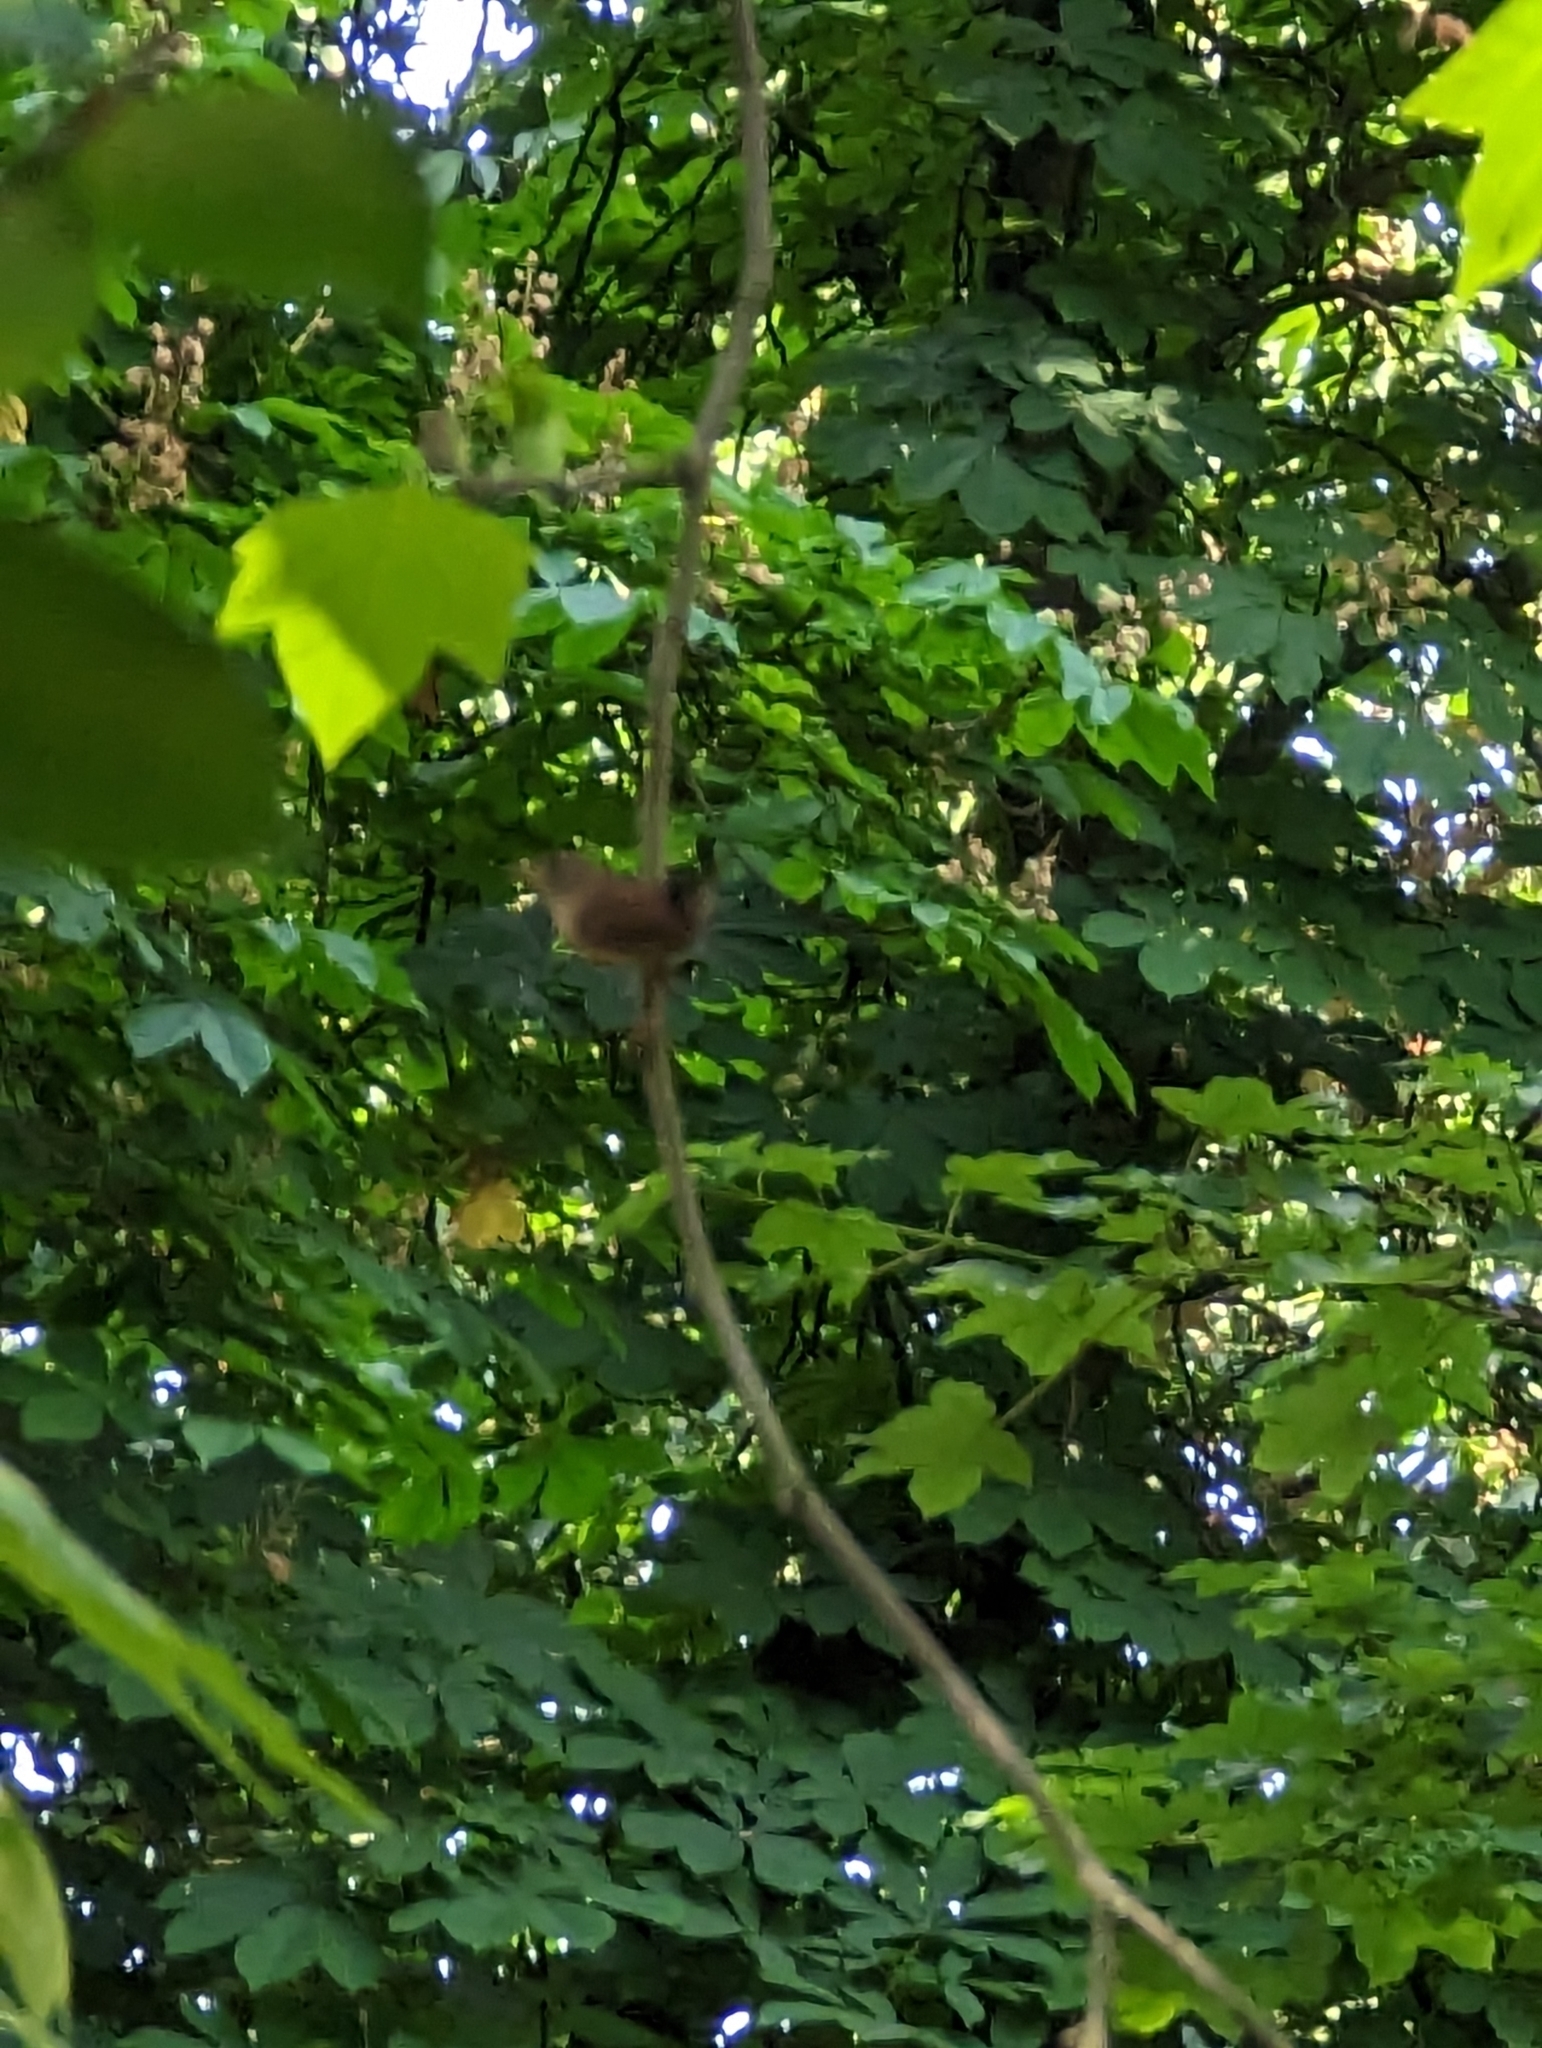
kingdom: Animalia
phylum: Chordata
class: Aves
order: Passeriformes
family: Troglodytidae
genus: Troglodytes
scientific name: Troglodytes troglodytes
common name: Eurasian wren
